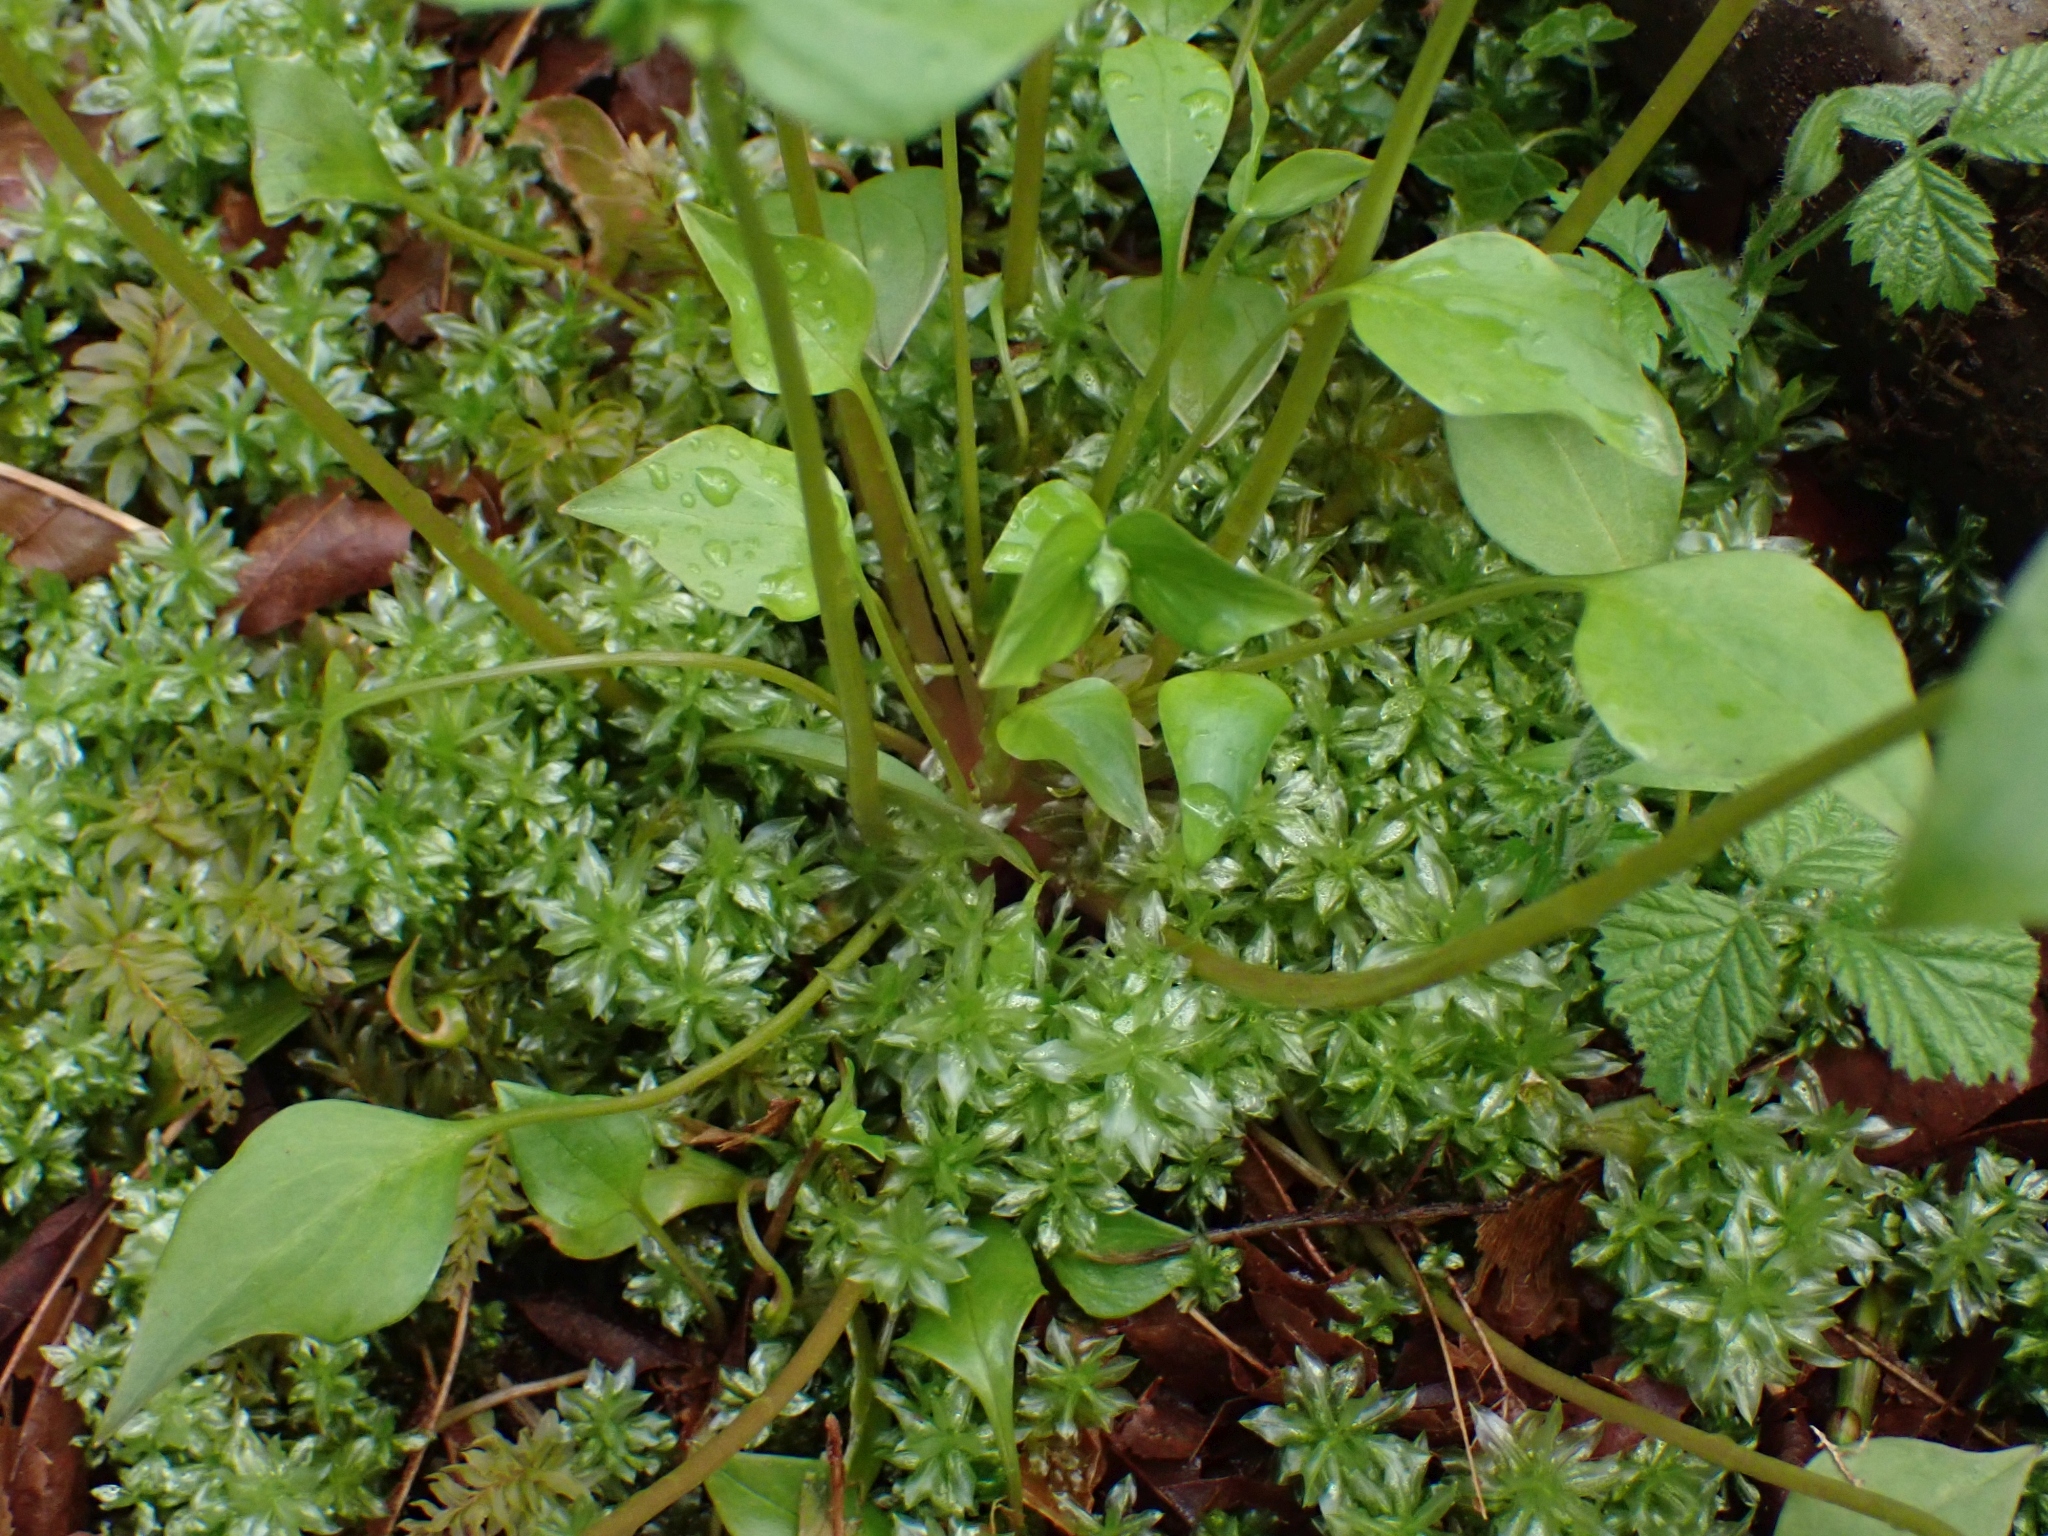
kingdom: Plantae
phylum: Tracheophyta
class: Magnoliopsida
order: Caryophyllales
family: Montiaceae
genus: Claytonia
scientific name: Claytonia sibirica
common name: Pink purslane
